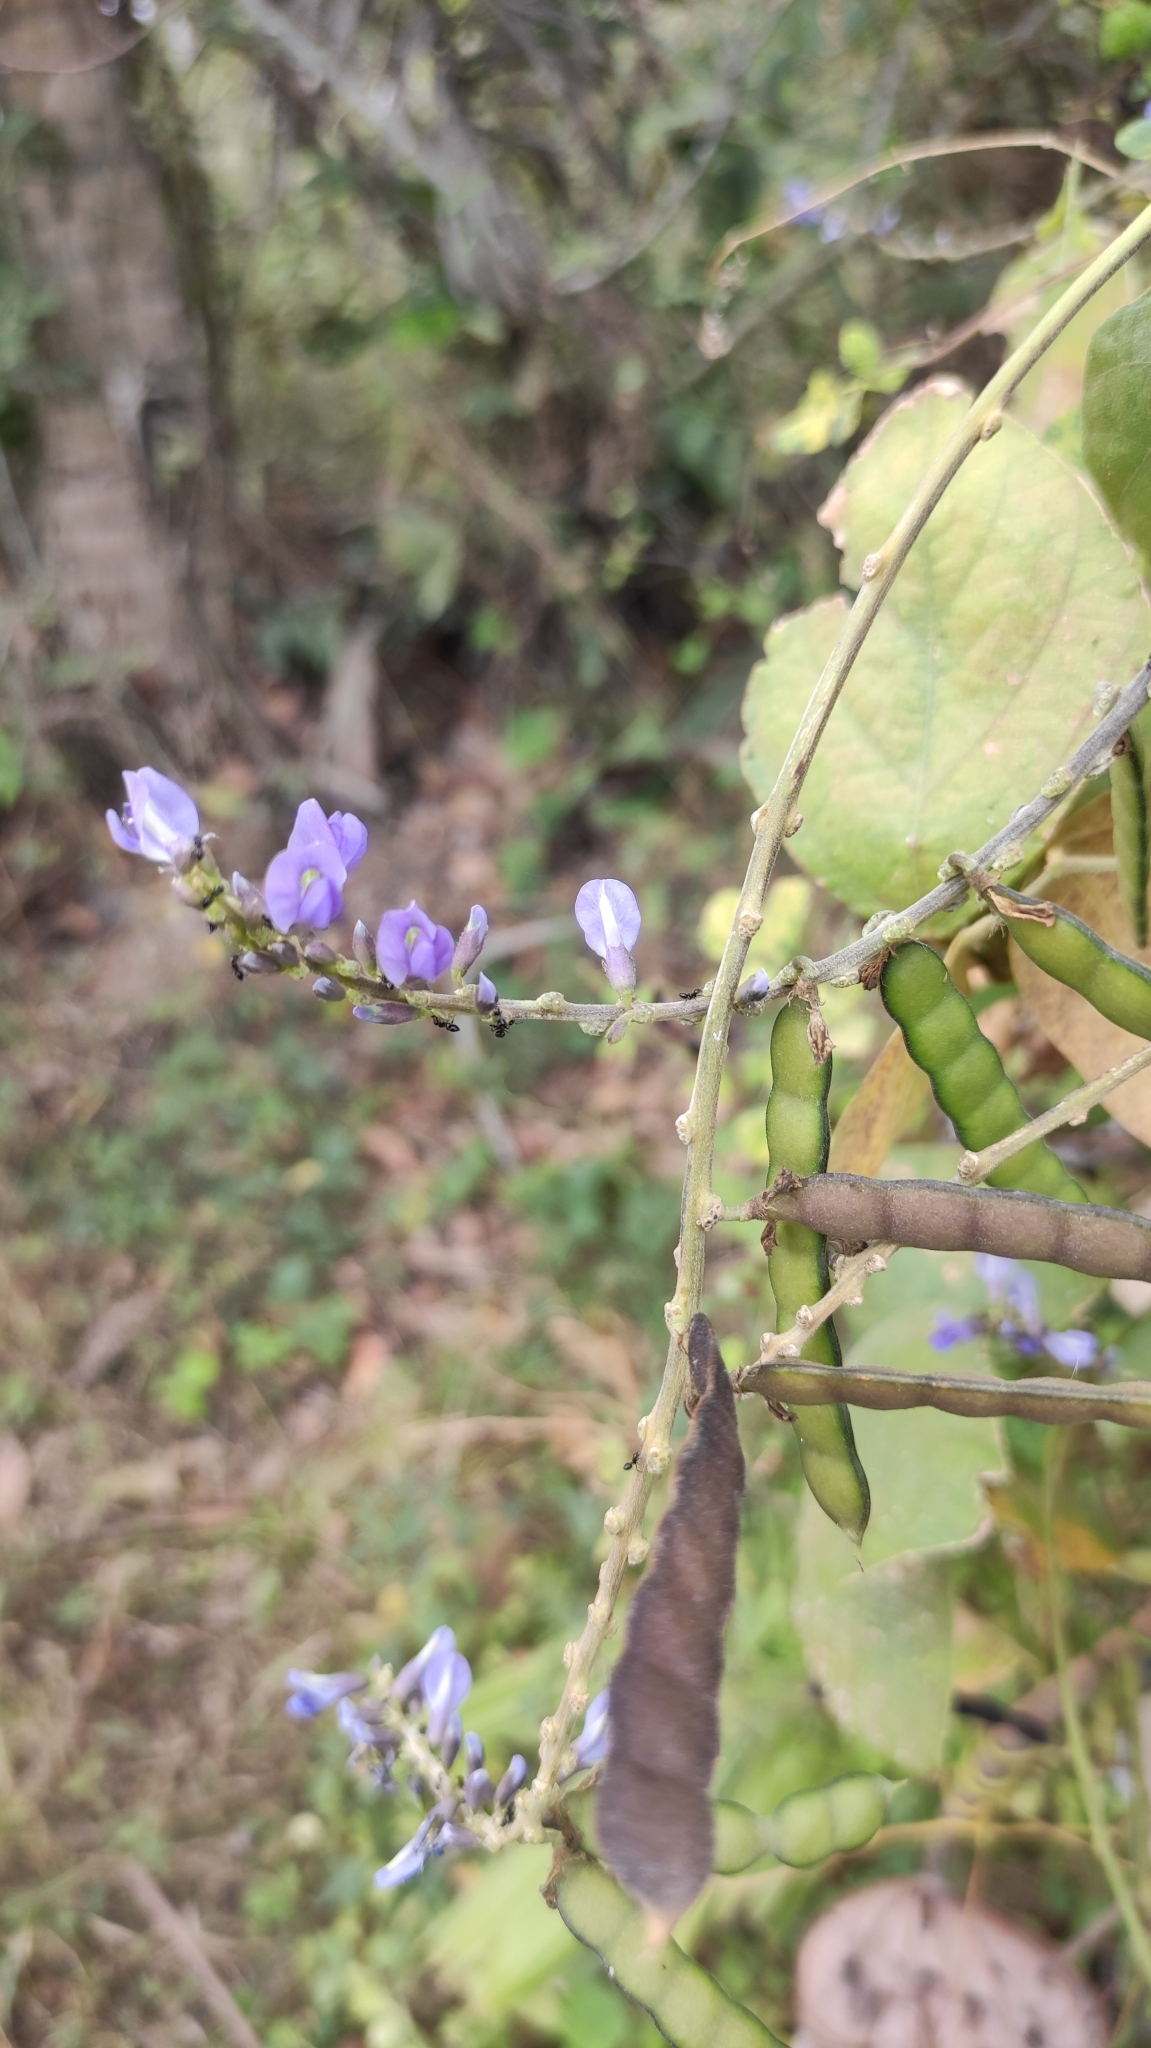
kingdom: Plantae
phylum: Tracheophyta
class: Magnoliopsida
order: Fabales
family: Fabaceae
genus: Calopogonium
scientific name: Calopogonium caeruleum
